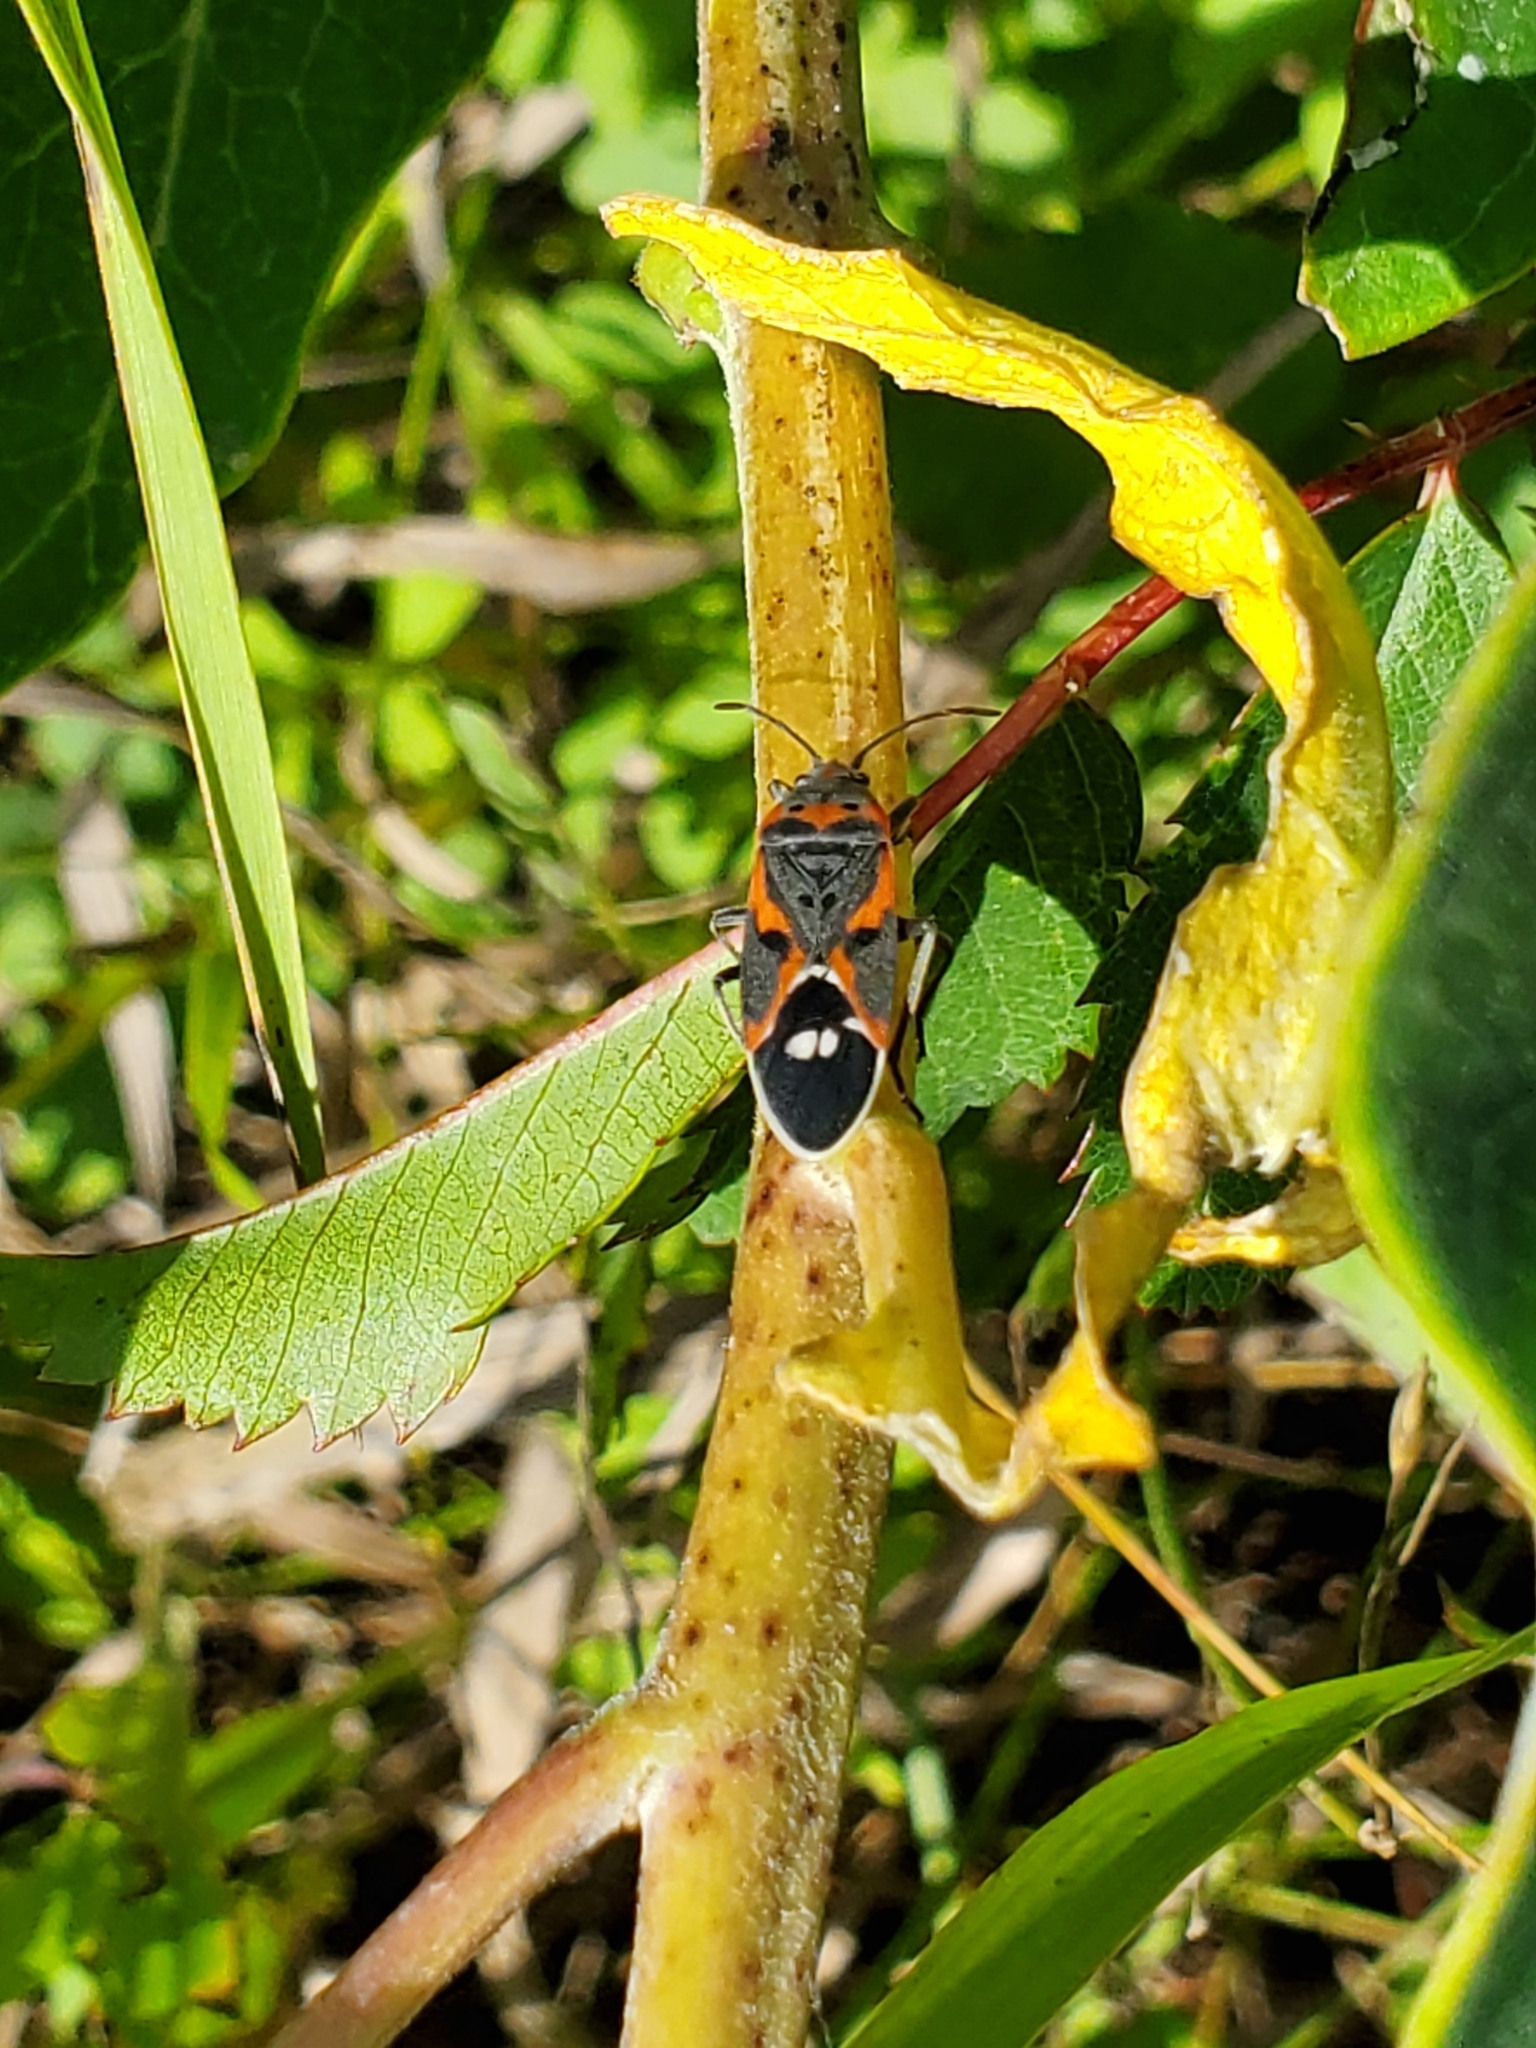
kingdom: Animalia
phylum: Arthropoda
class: Insecta
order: Hemiptera
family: Lygaeidae
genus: Lygaeus
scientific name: Lygaeus kalmii
